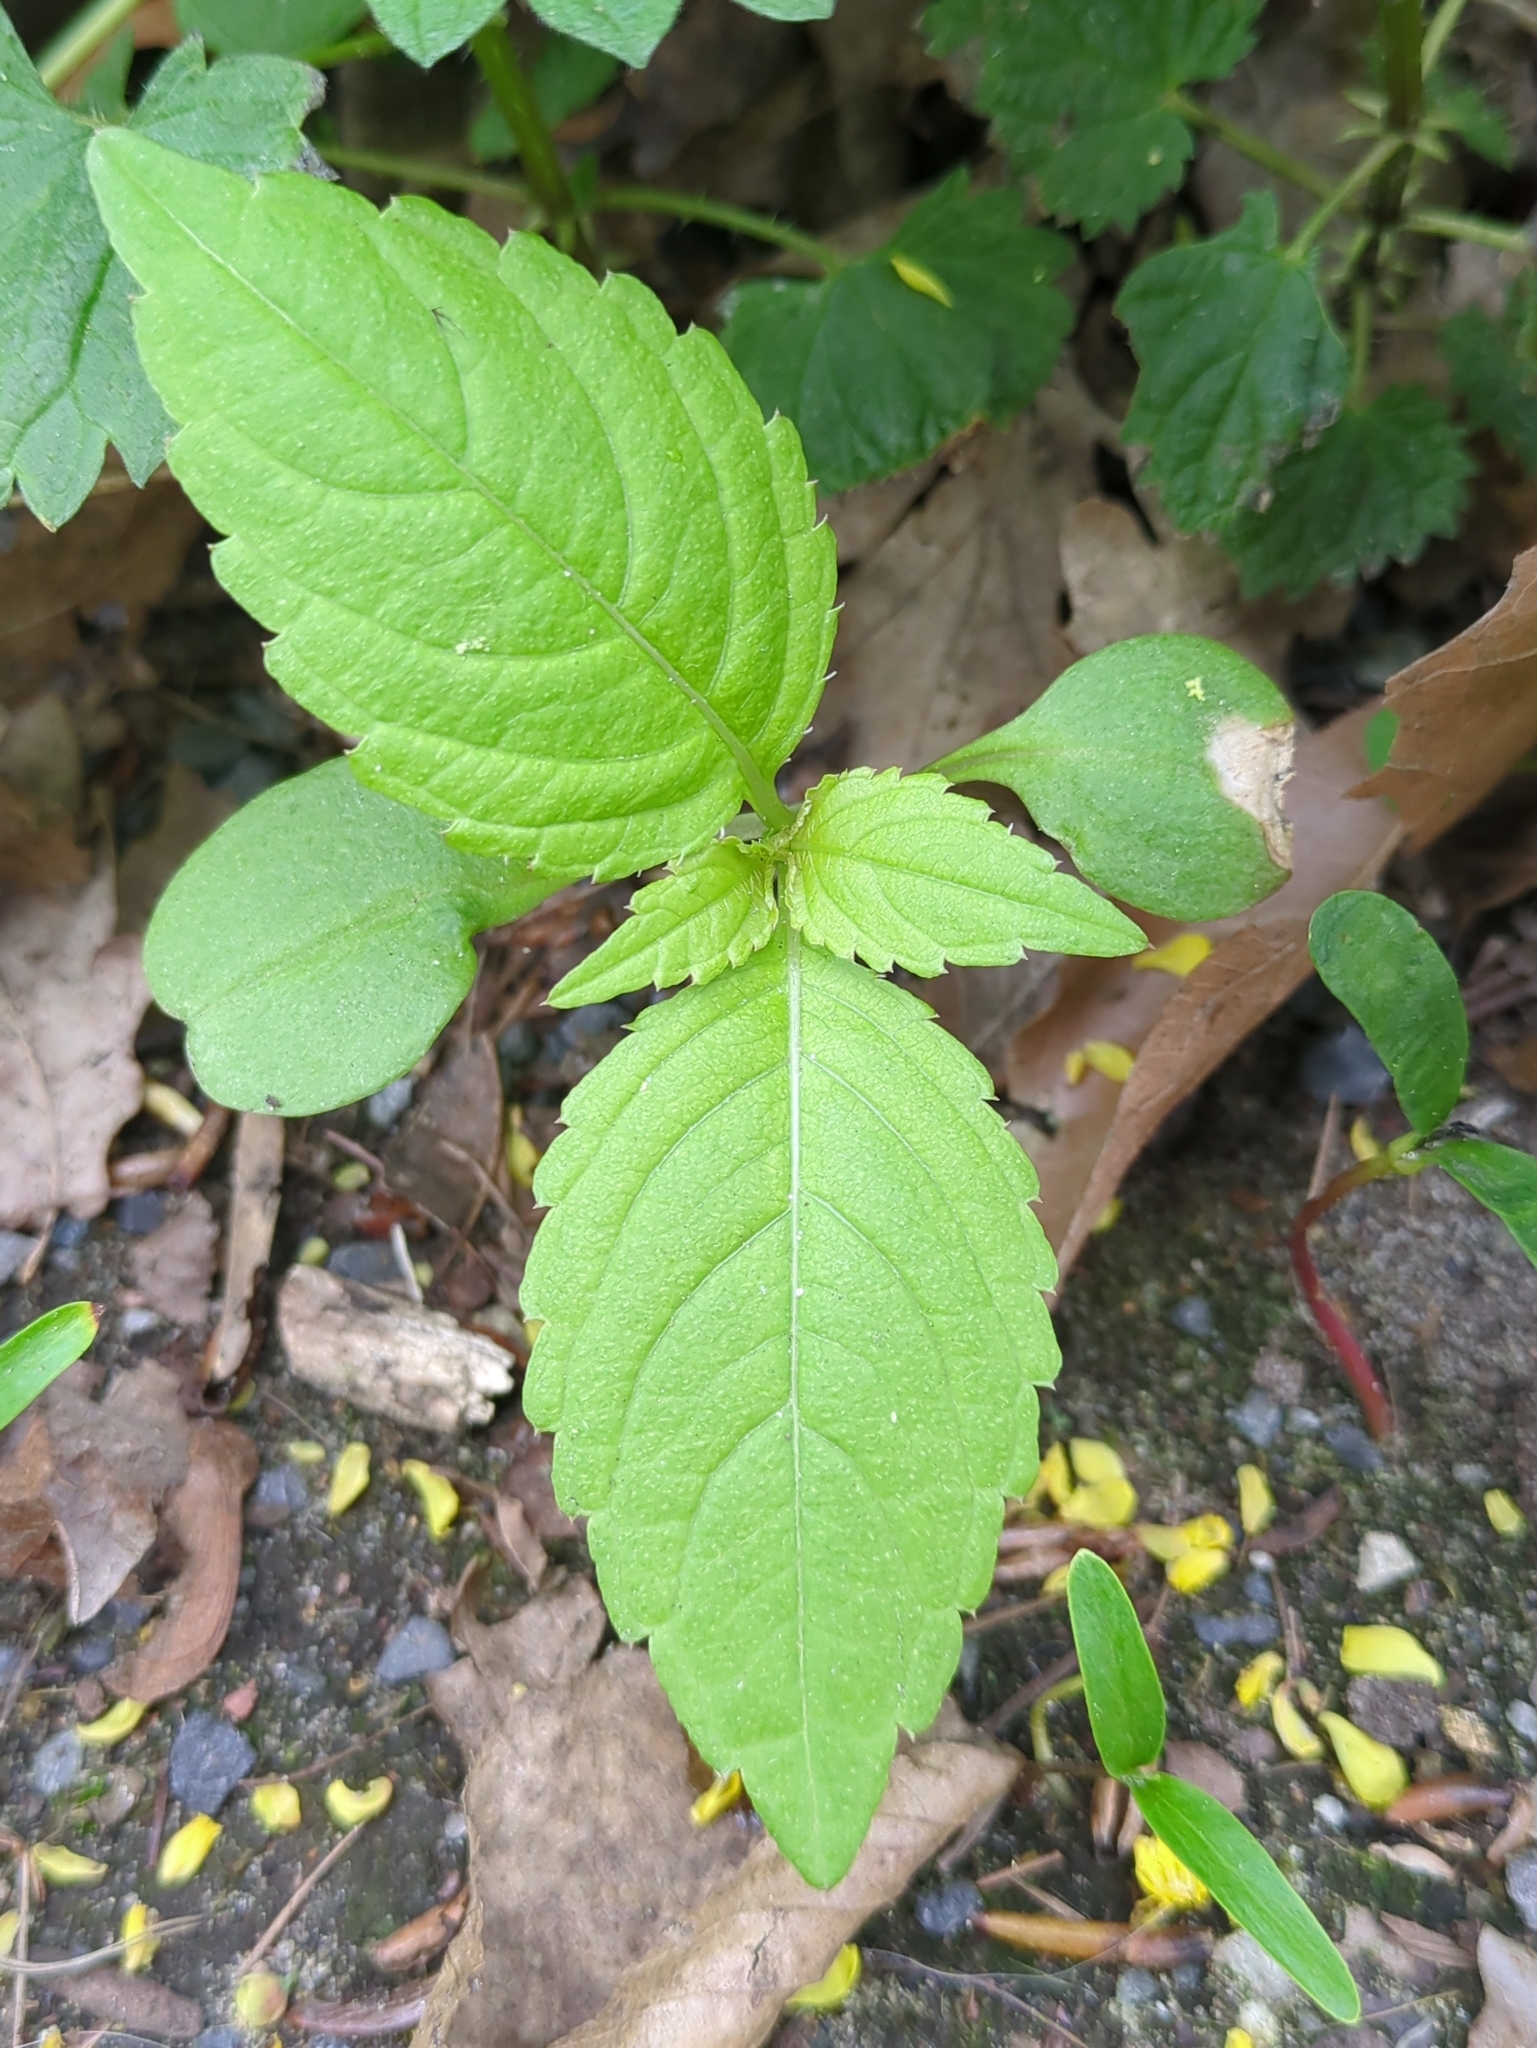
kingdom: Plantae
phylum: Tracheophyta
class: Magnoliopsida
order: Ericales
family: Balsaminaceae
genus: Impatiens
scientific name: Impatiens parviflora
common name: Small balsam
